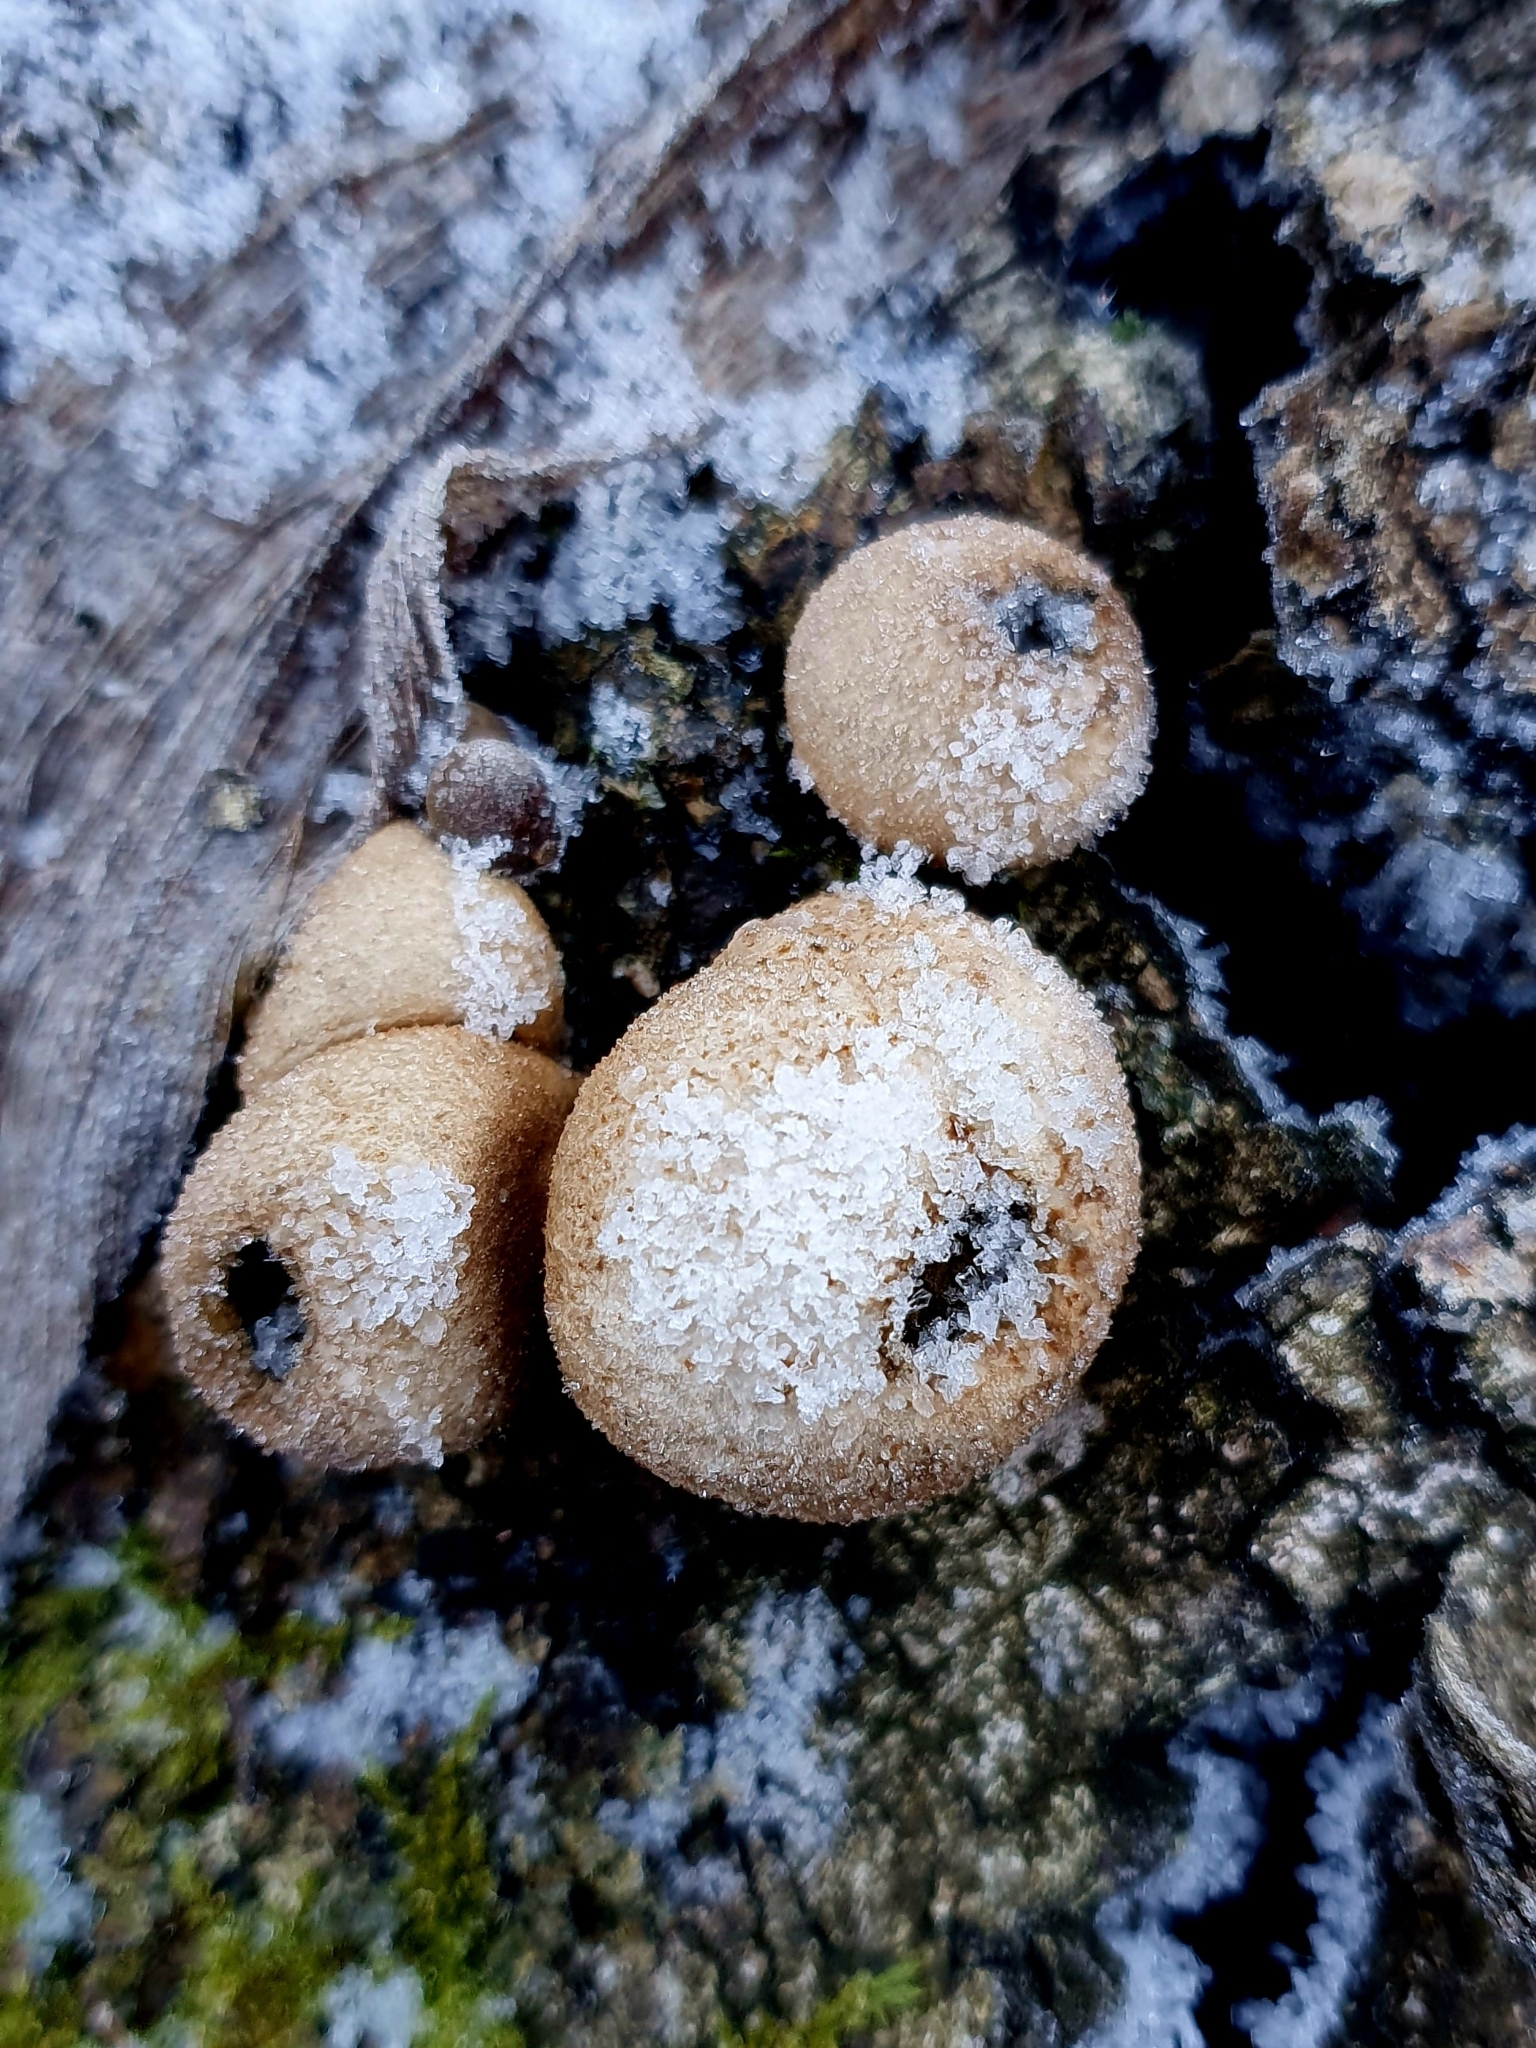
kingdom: Fungi
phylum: Basidiomycota
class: Agaricomycetes
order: Agaricales
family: Lycoperdaceae
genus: Apioperdon
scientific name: Apioperdon pyriforme
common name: Pear-shaped puffball
